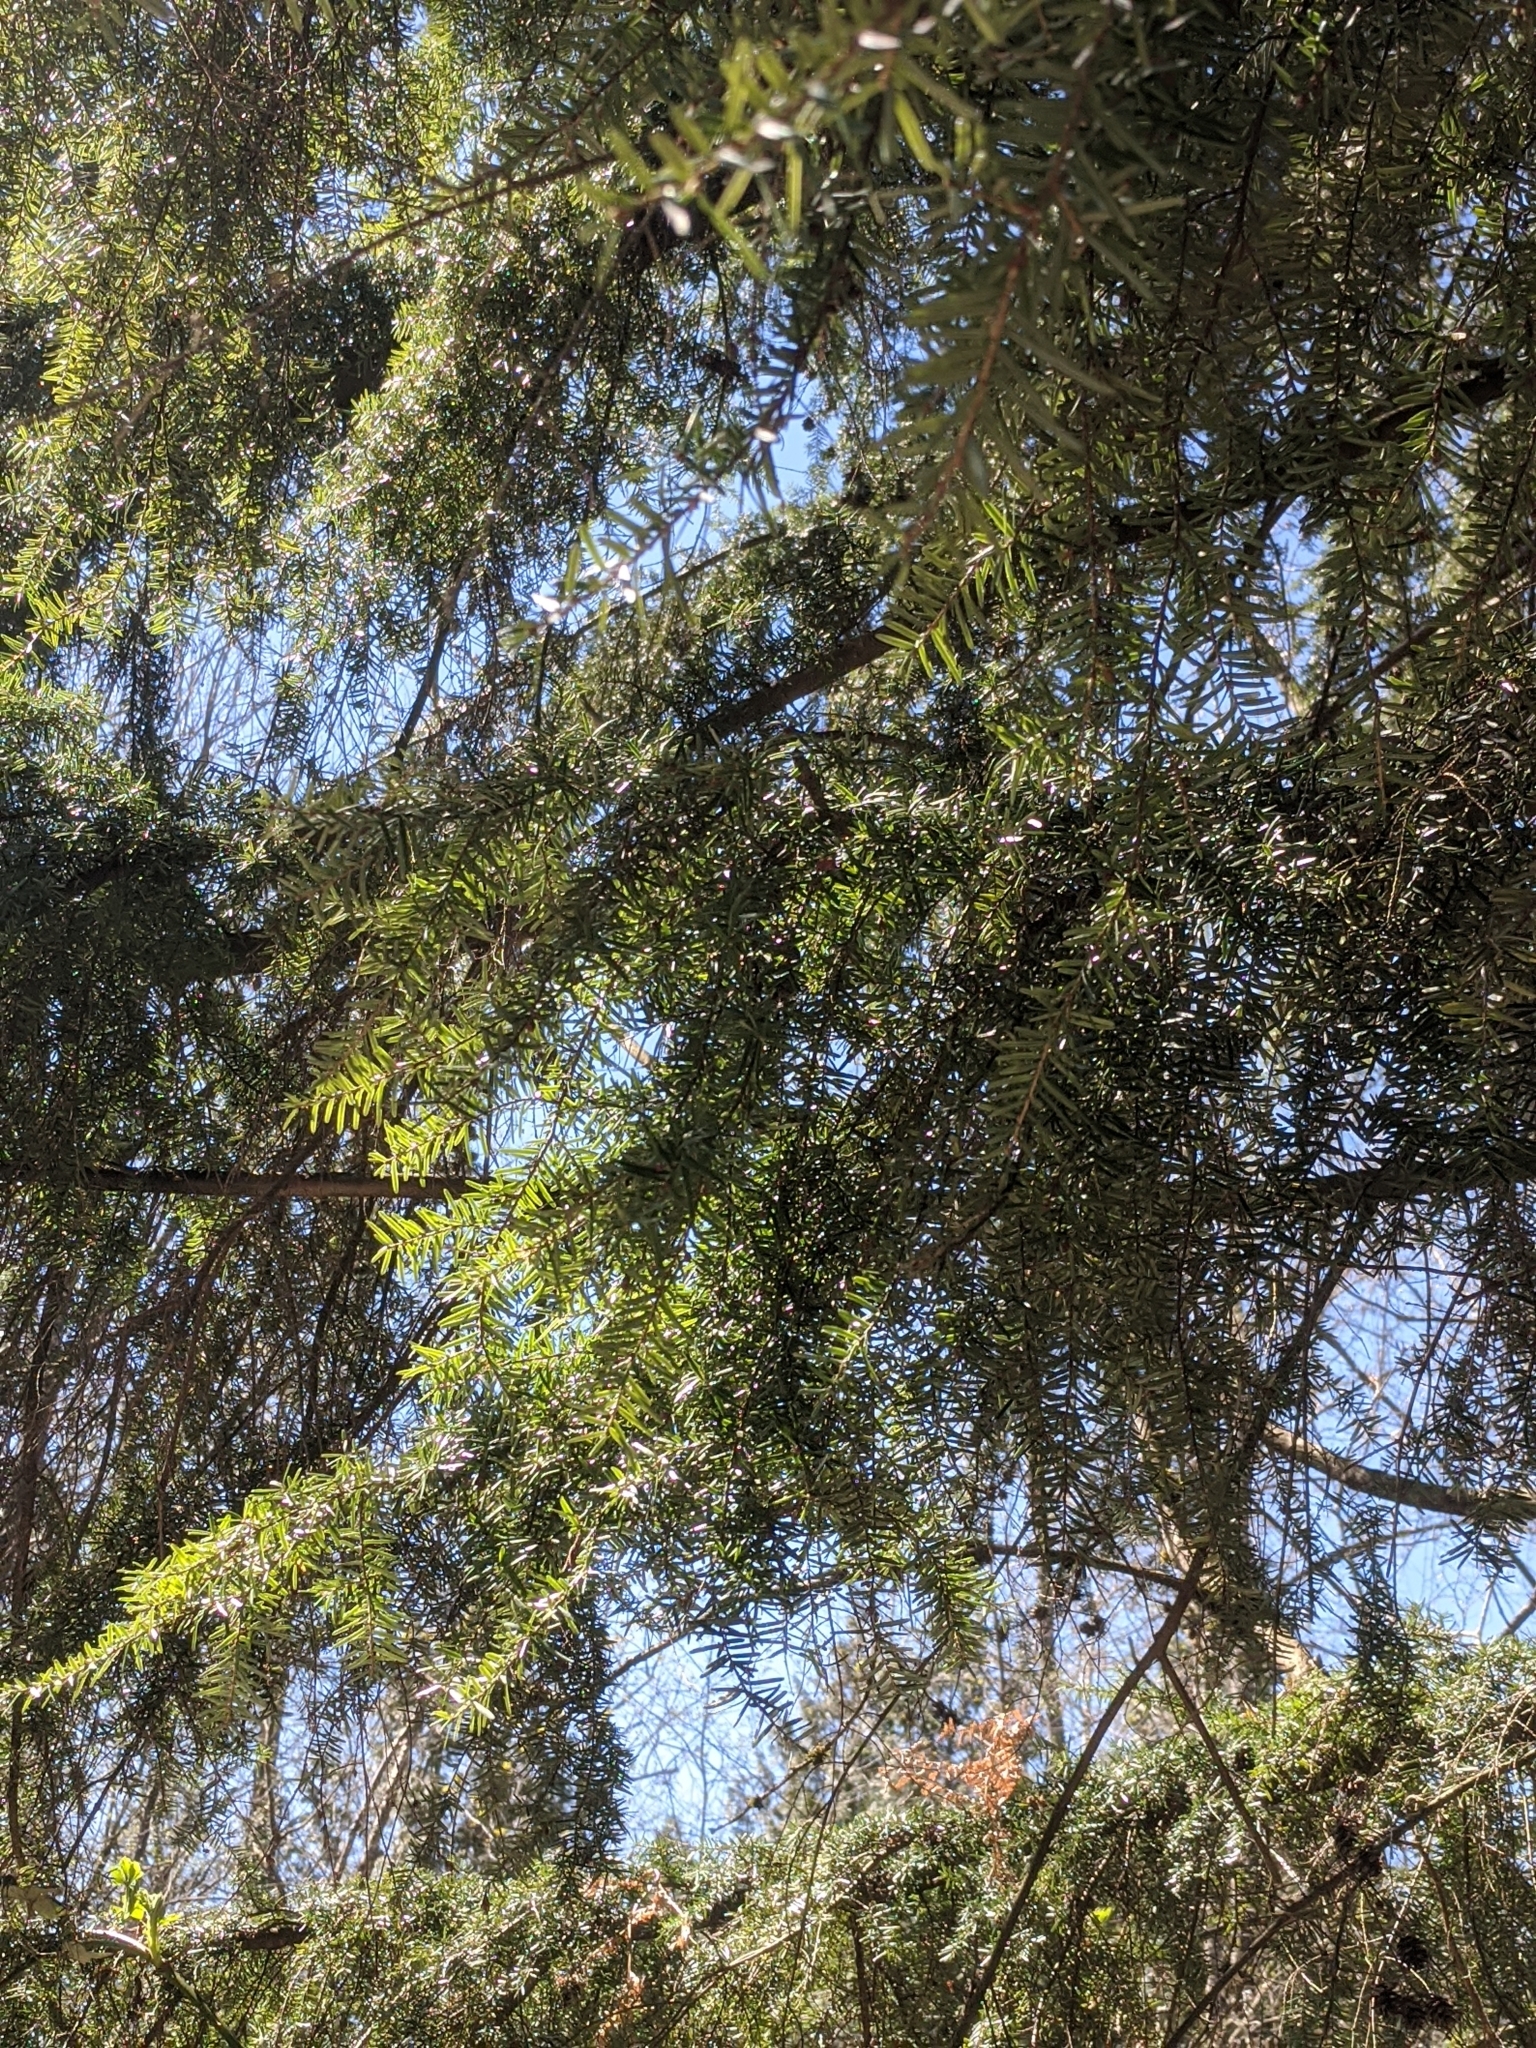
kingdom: Plantae
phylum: Tracheophyta
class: Pinopsida
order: Pinales
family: Pinaceae
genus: Tsuga
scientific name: Tsuga heterophylla
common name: Western hemlock
